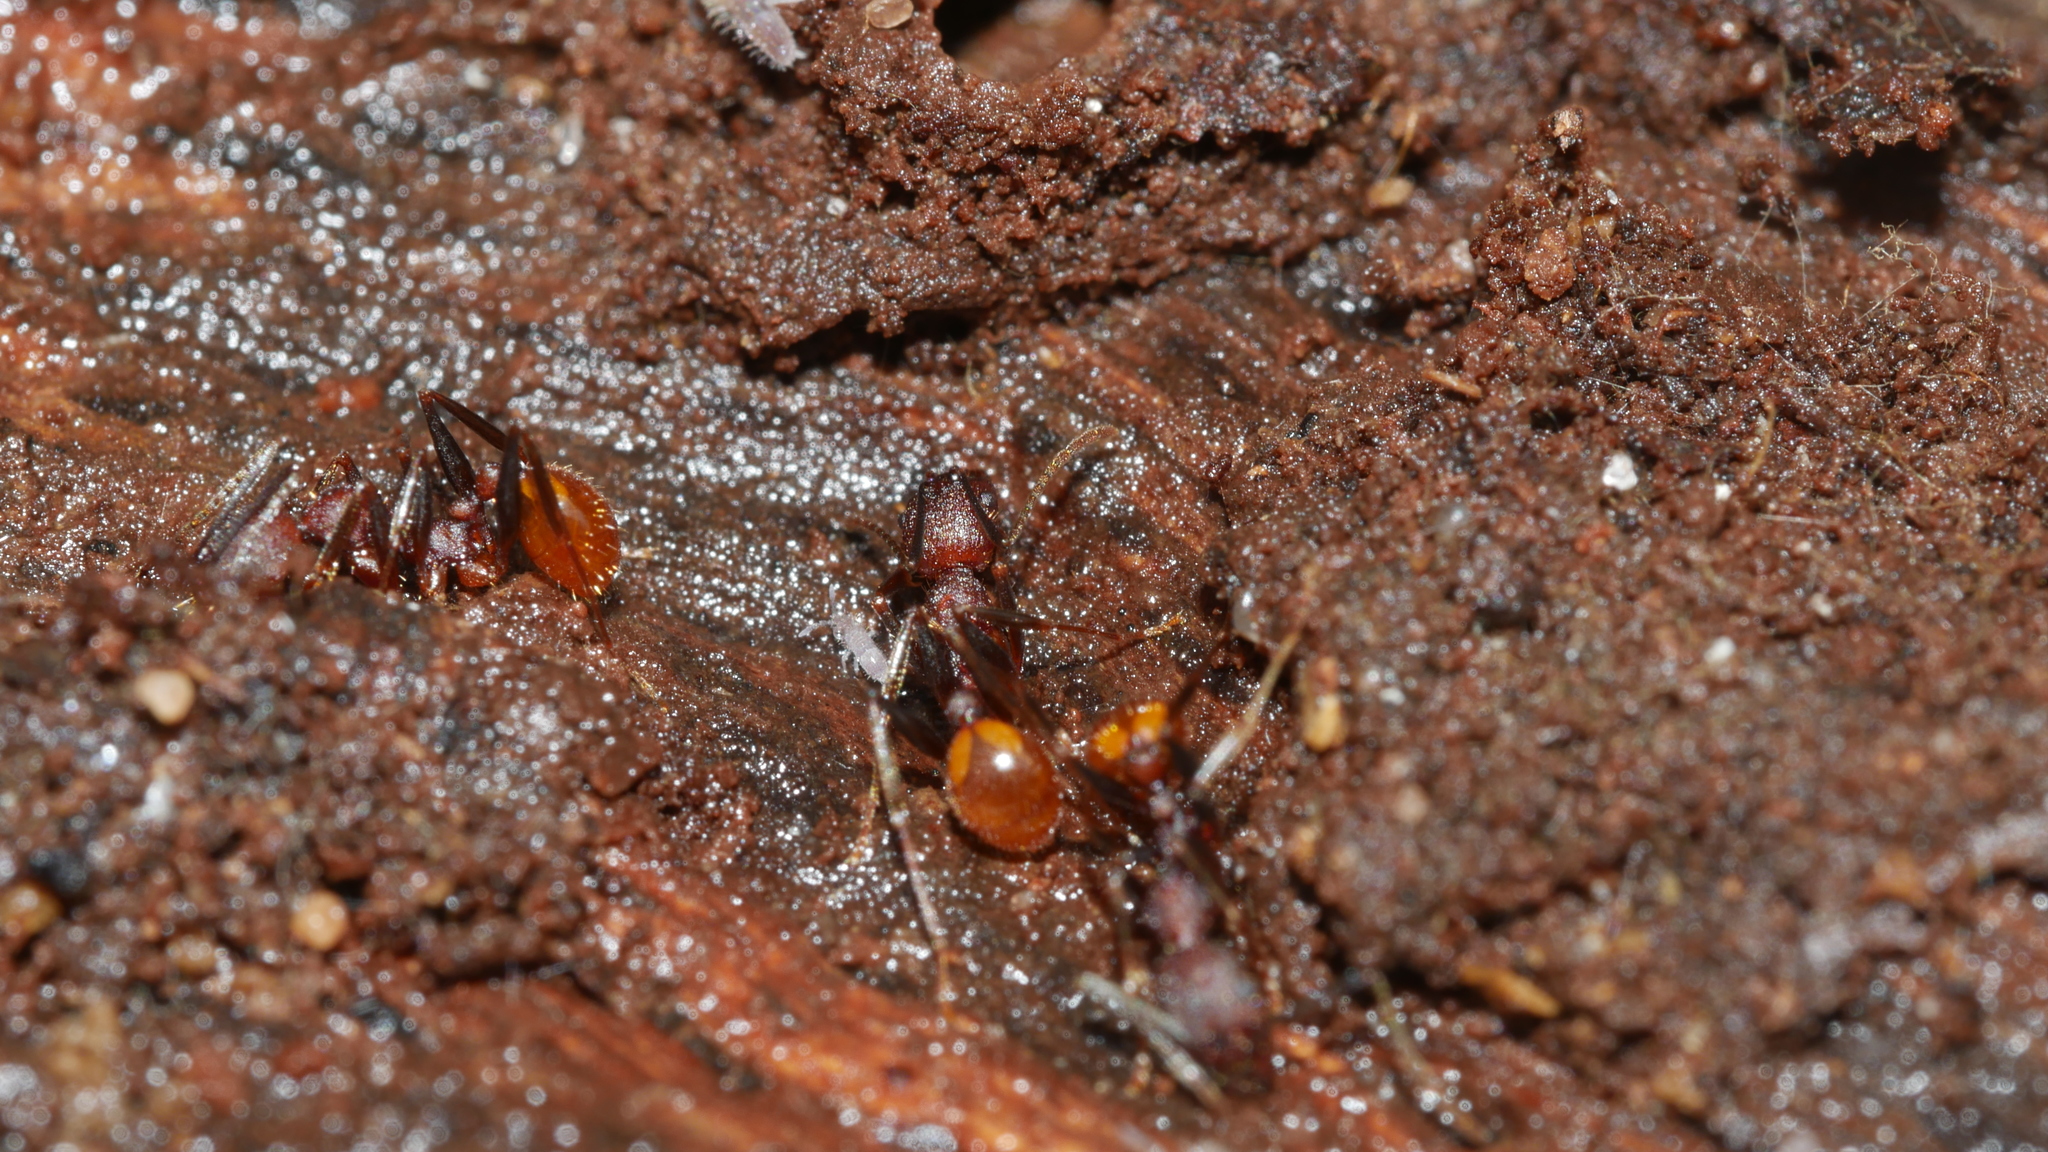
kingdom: Animalia
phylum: Arthropoda
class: Insecta
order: Hymenoptera
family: Formicidae
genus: Aphaenogaster
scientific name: Aphaenogaster lamellidens
